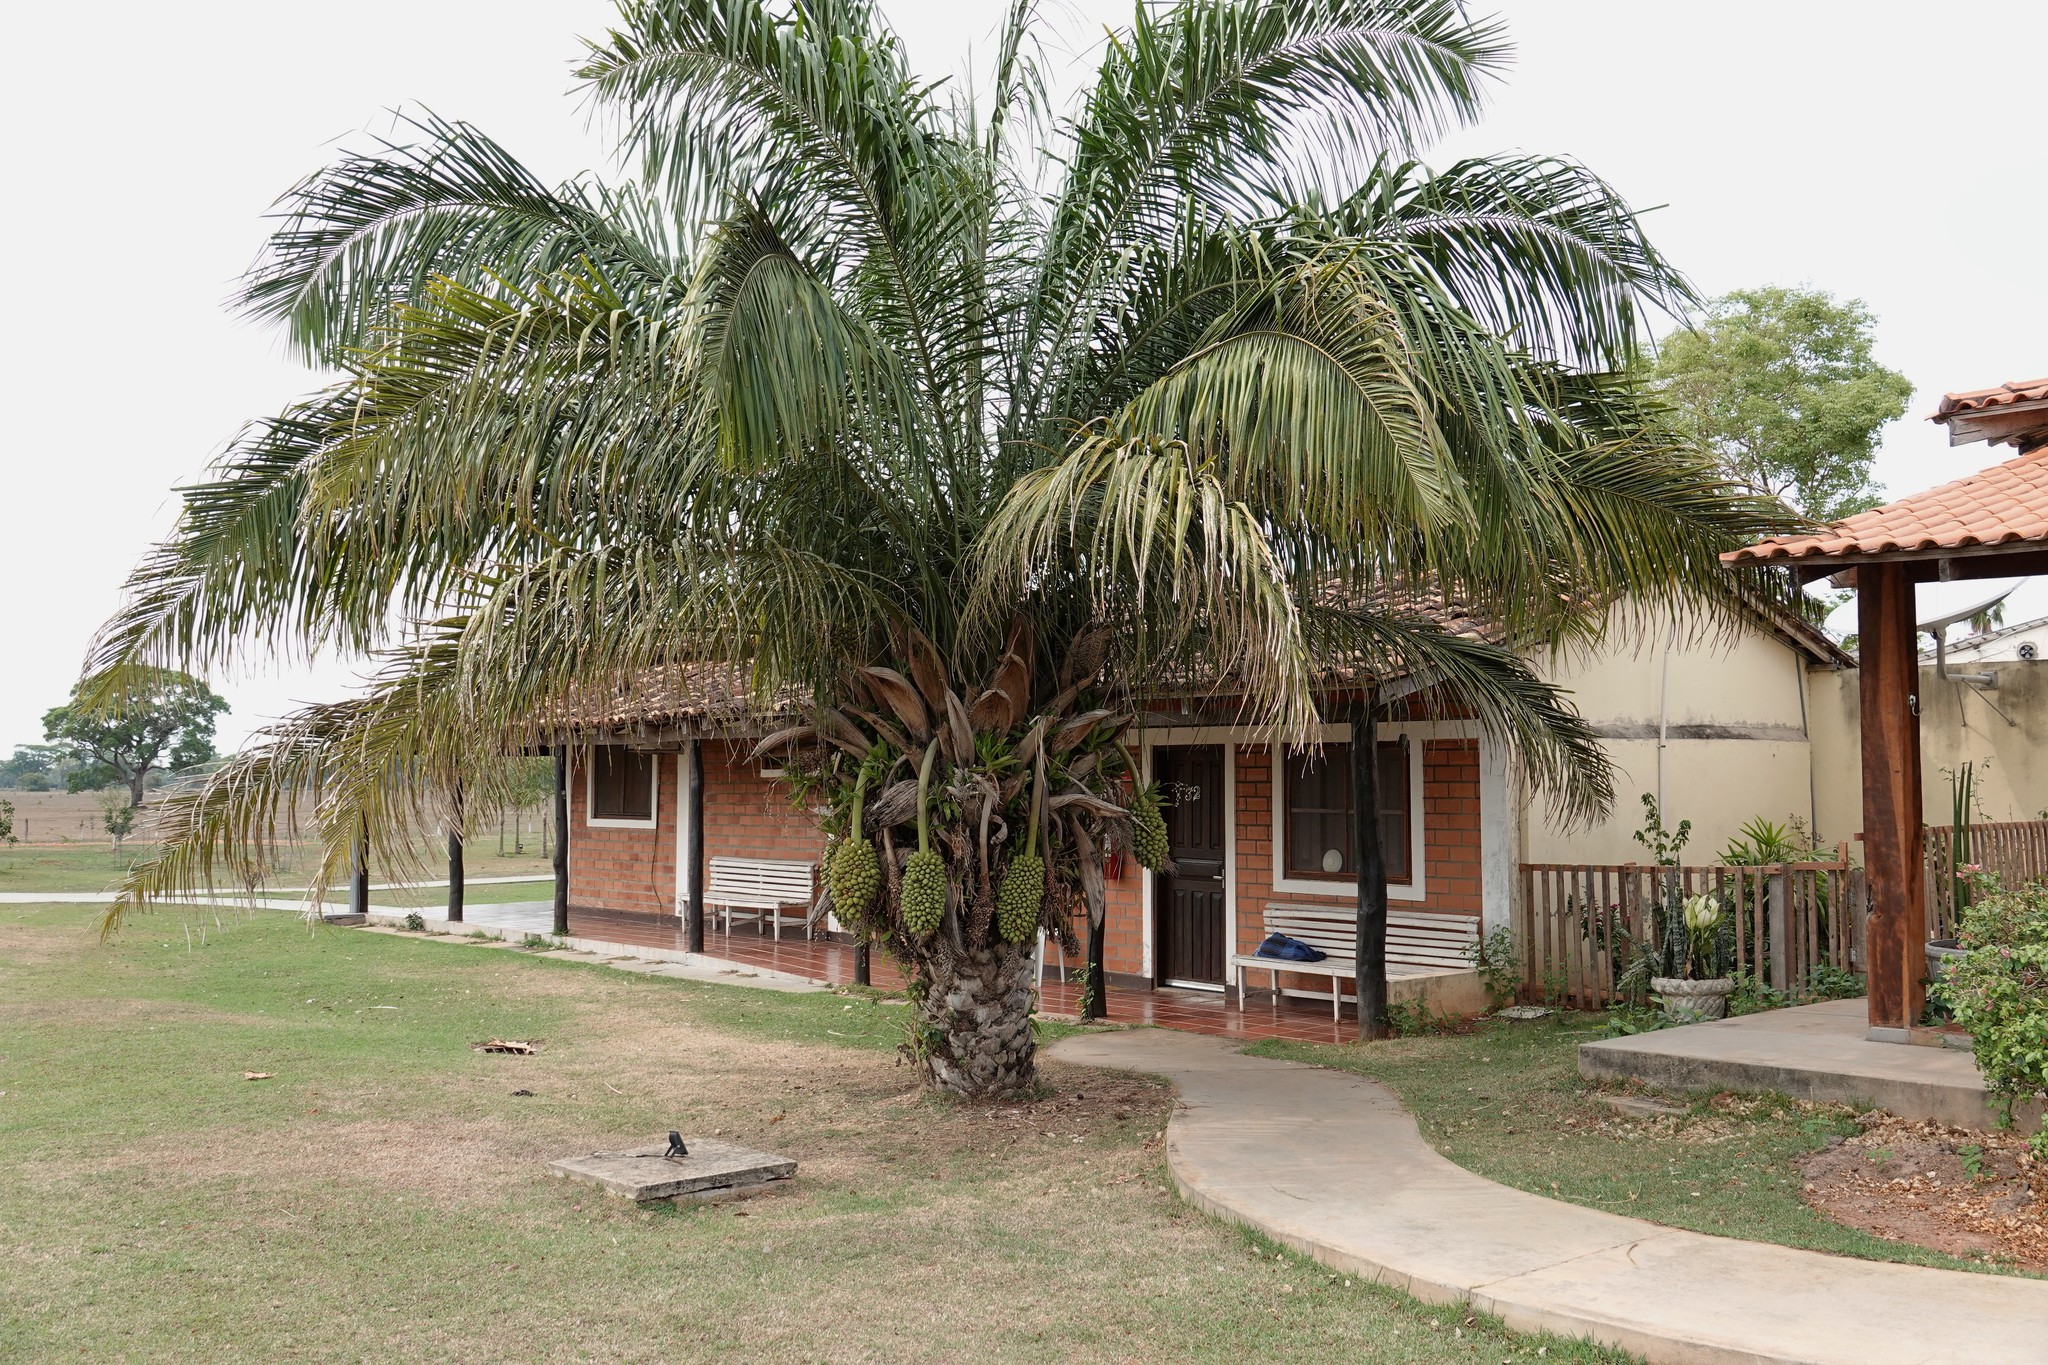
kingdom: Plantae
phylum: Tracheophyta
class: Liliopsida
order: Arecales
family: Arecaceae
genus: Attalea
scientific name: Attalea phalerata
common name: Urucuri palm
